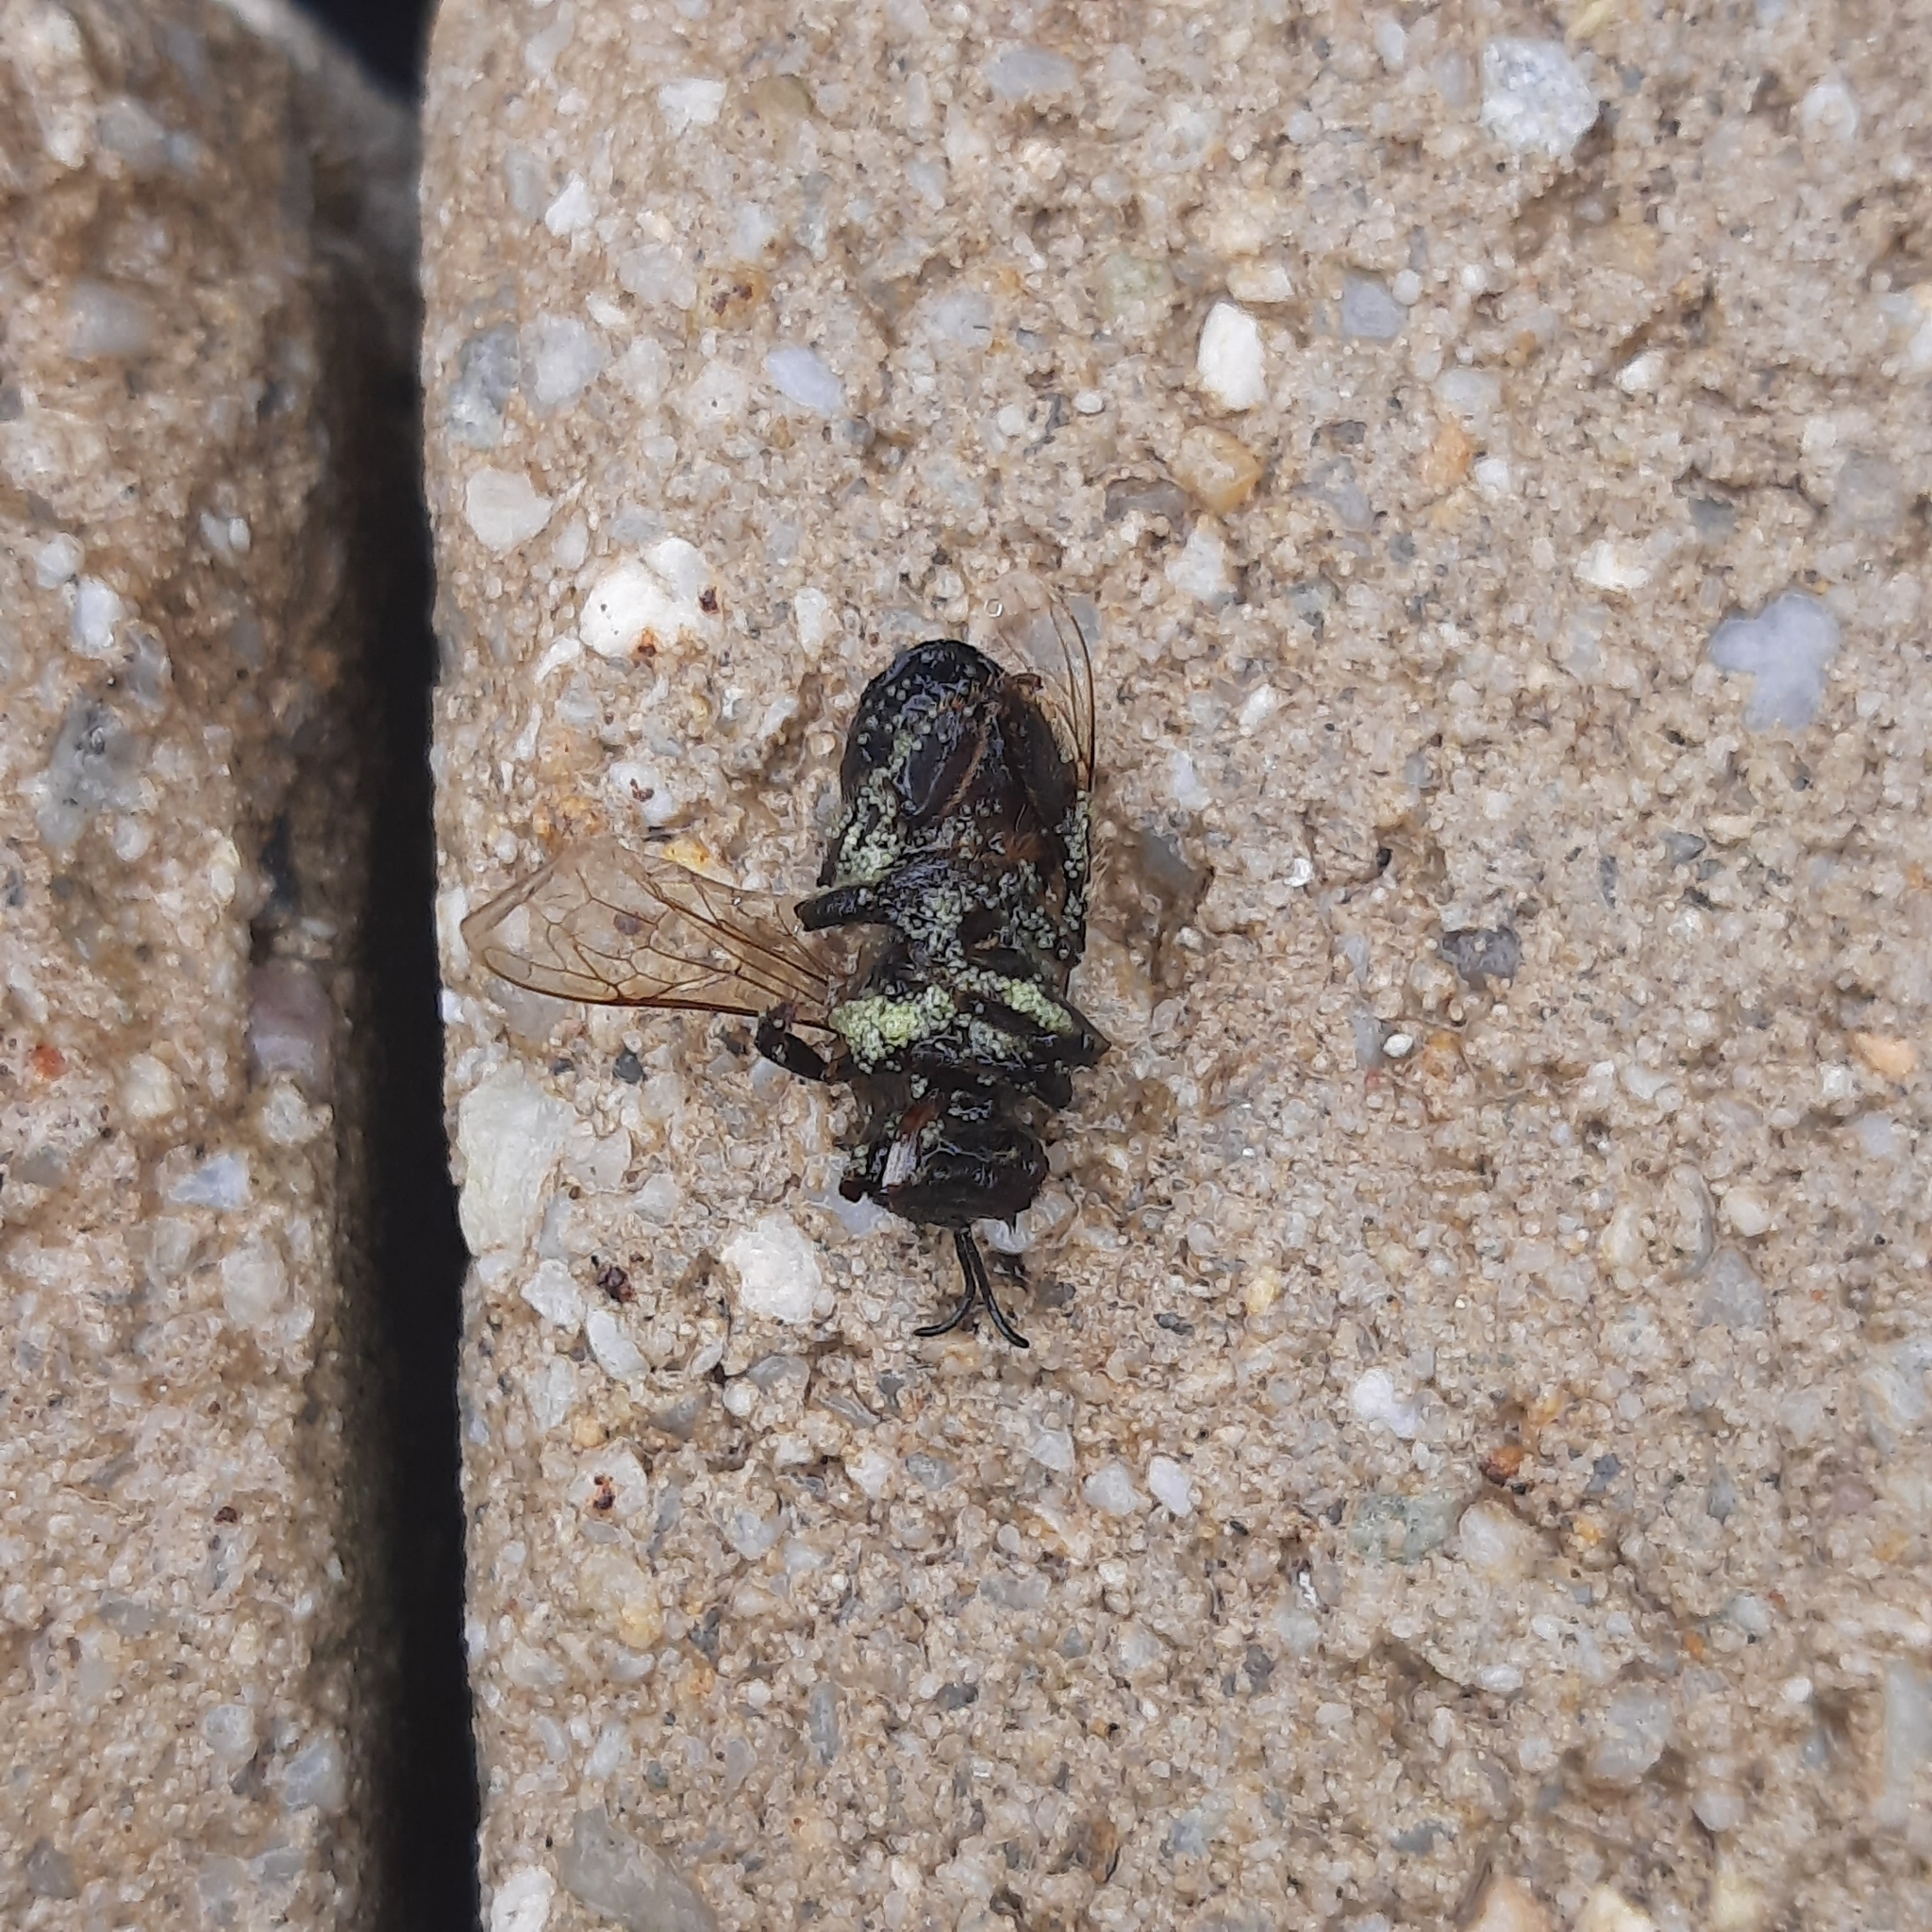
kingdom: Animalia
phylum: Arthropoda
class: Insecta
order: Hymenoptera
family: Apidae
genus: Apis
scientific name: Apis mellifera
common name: Honey bee
